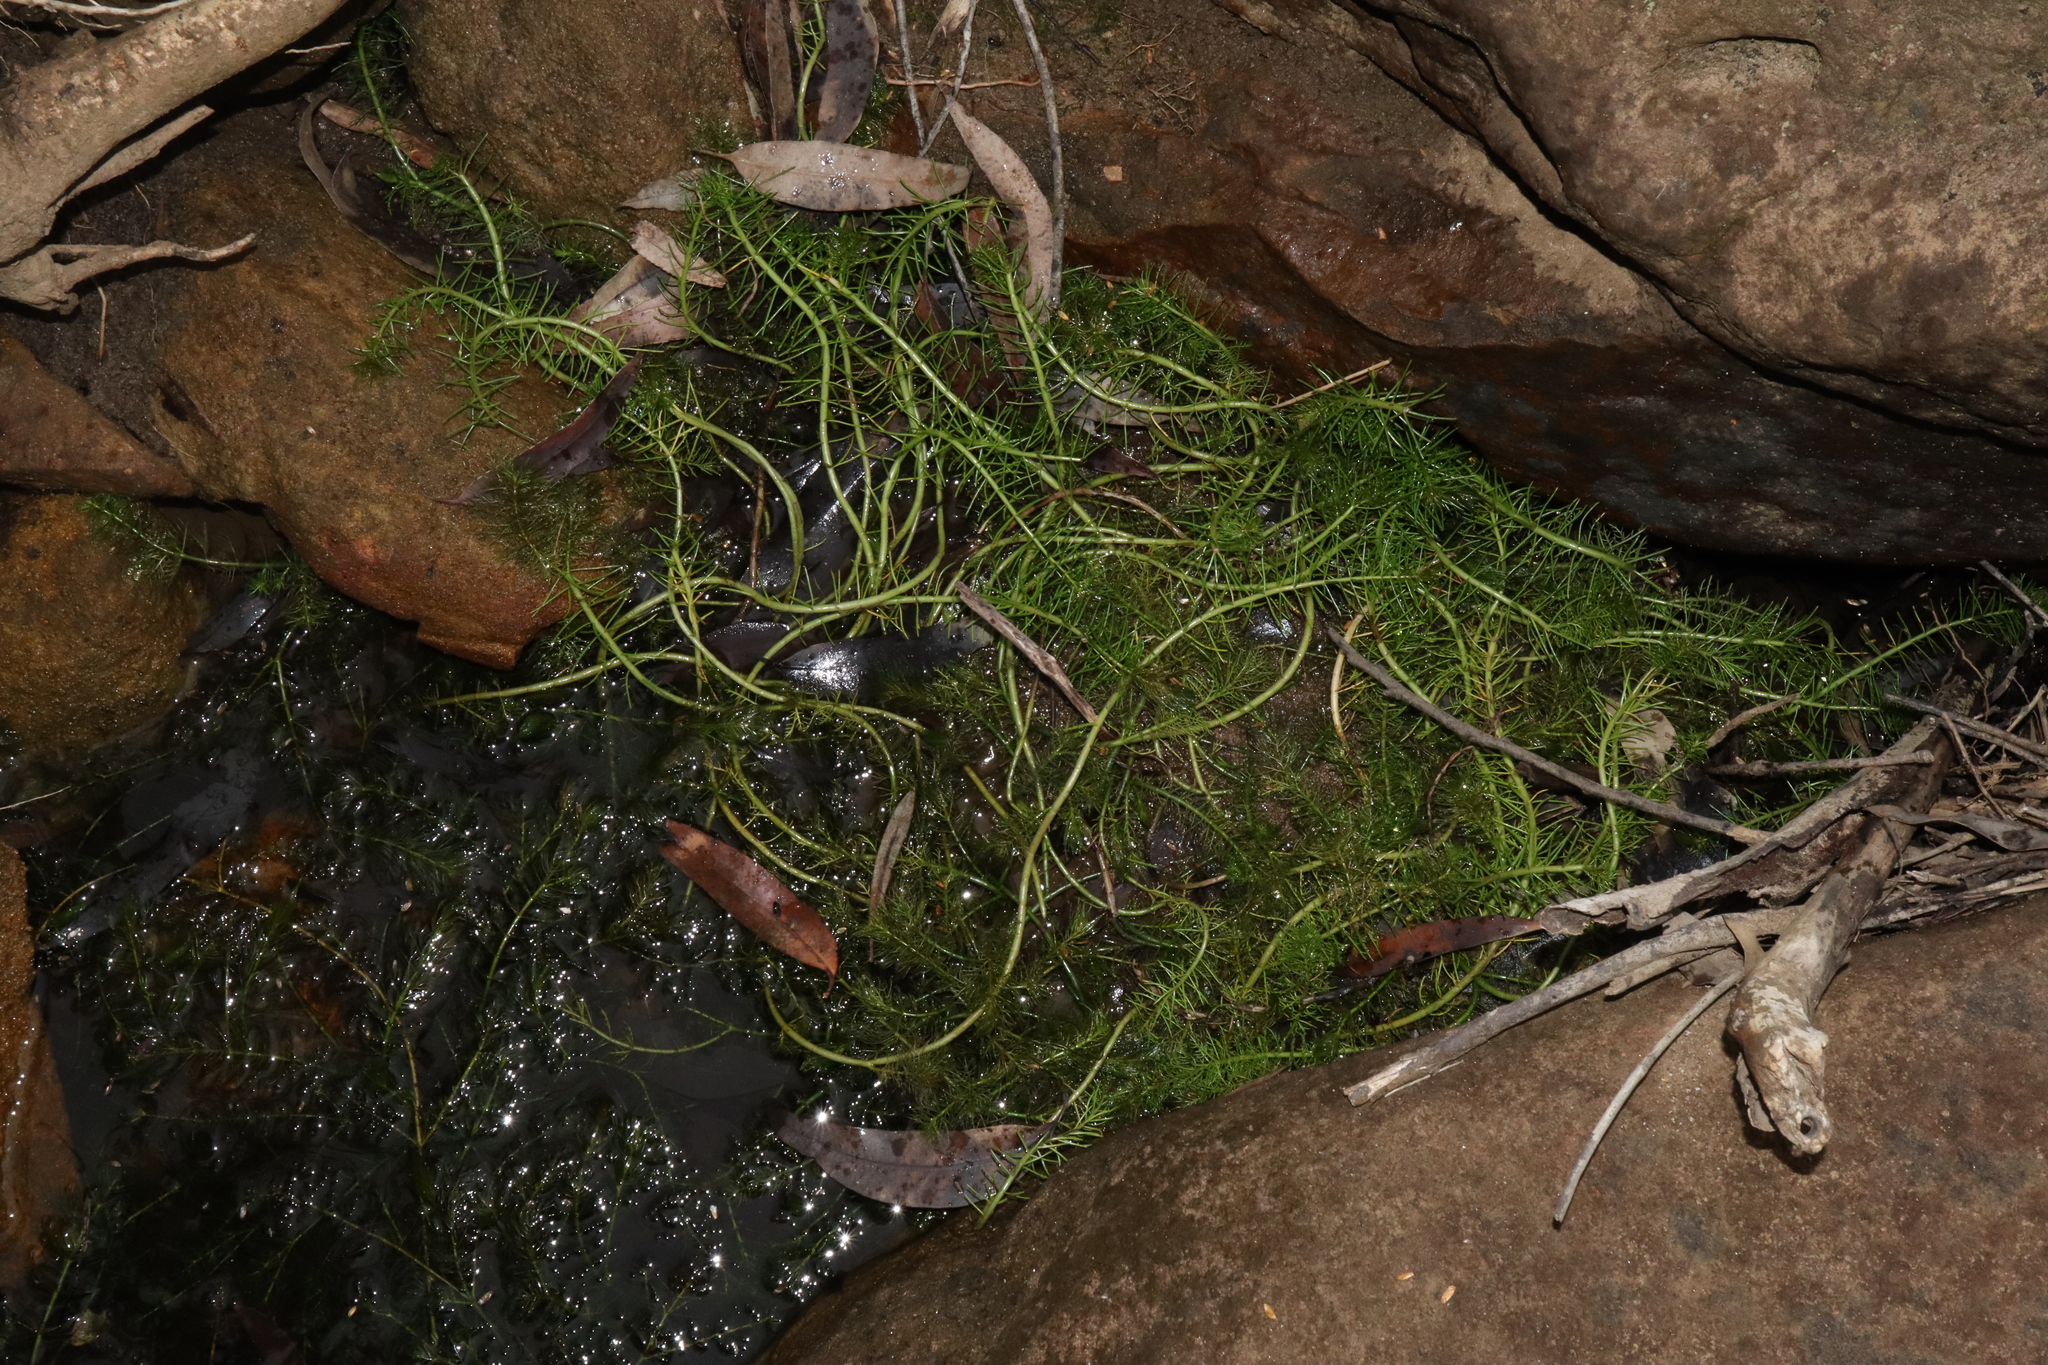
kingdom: Plantae
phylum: Tracheophyta
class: Magnoliopsida
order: Saxifragales
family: Haloragaceae
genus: Myriophyllum
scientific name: Myriophyllum variifolium
